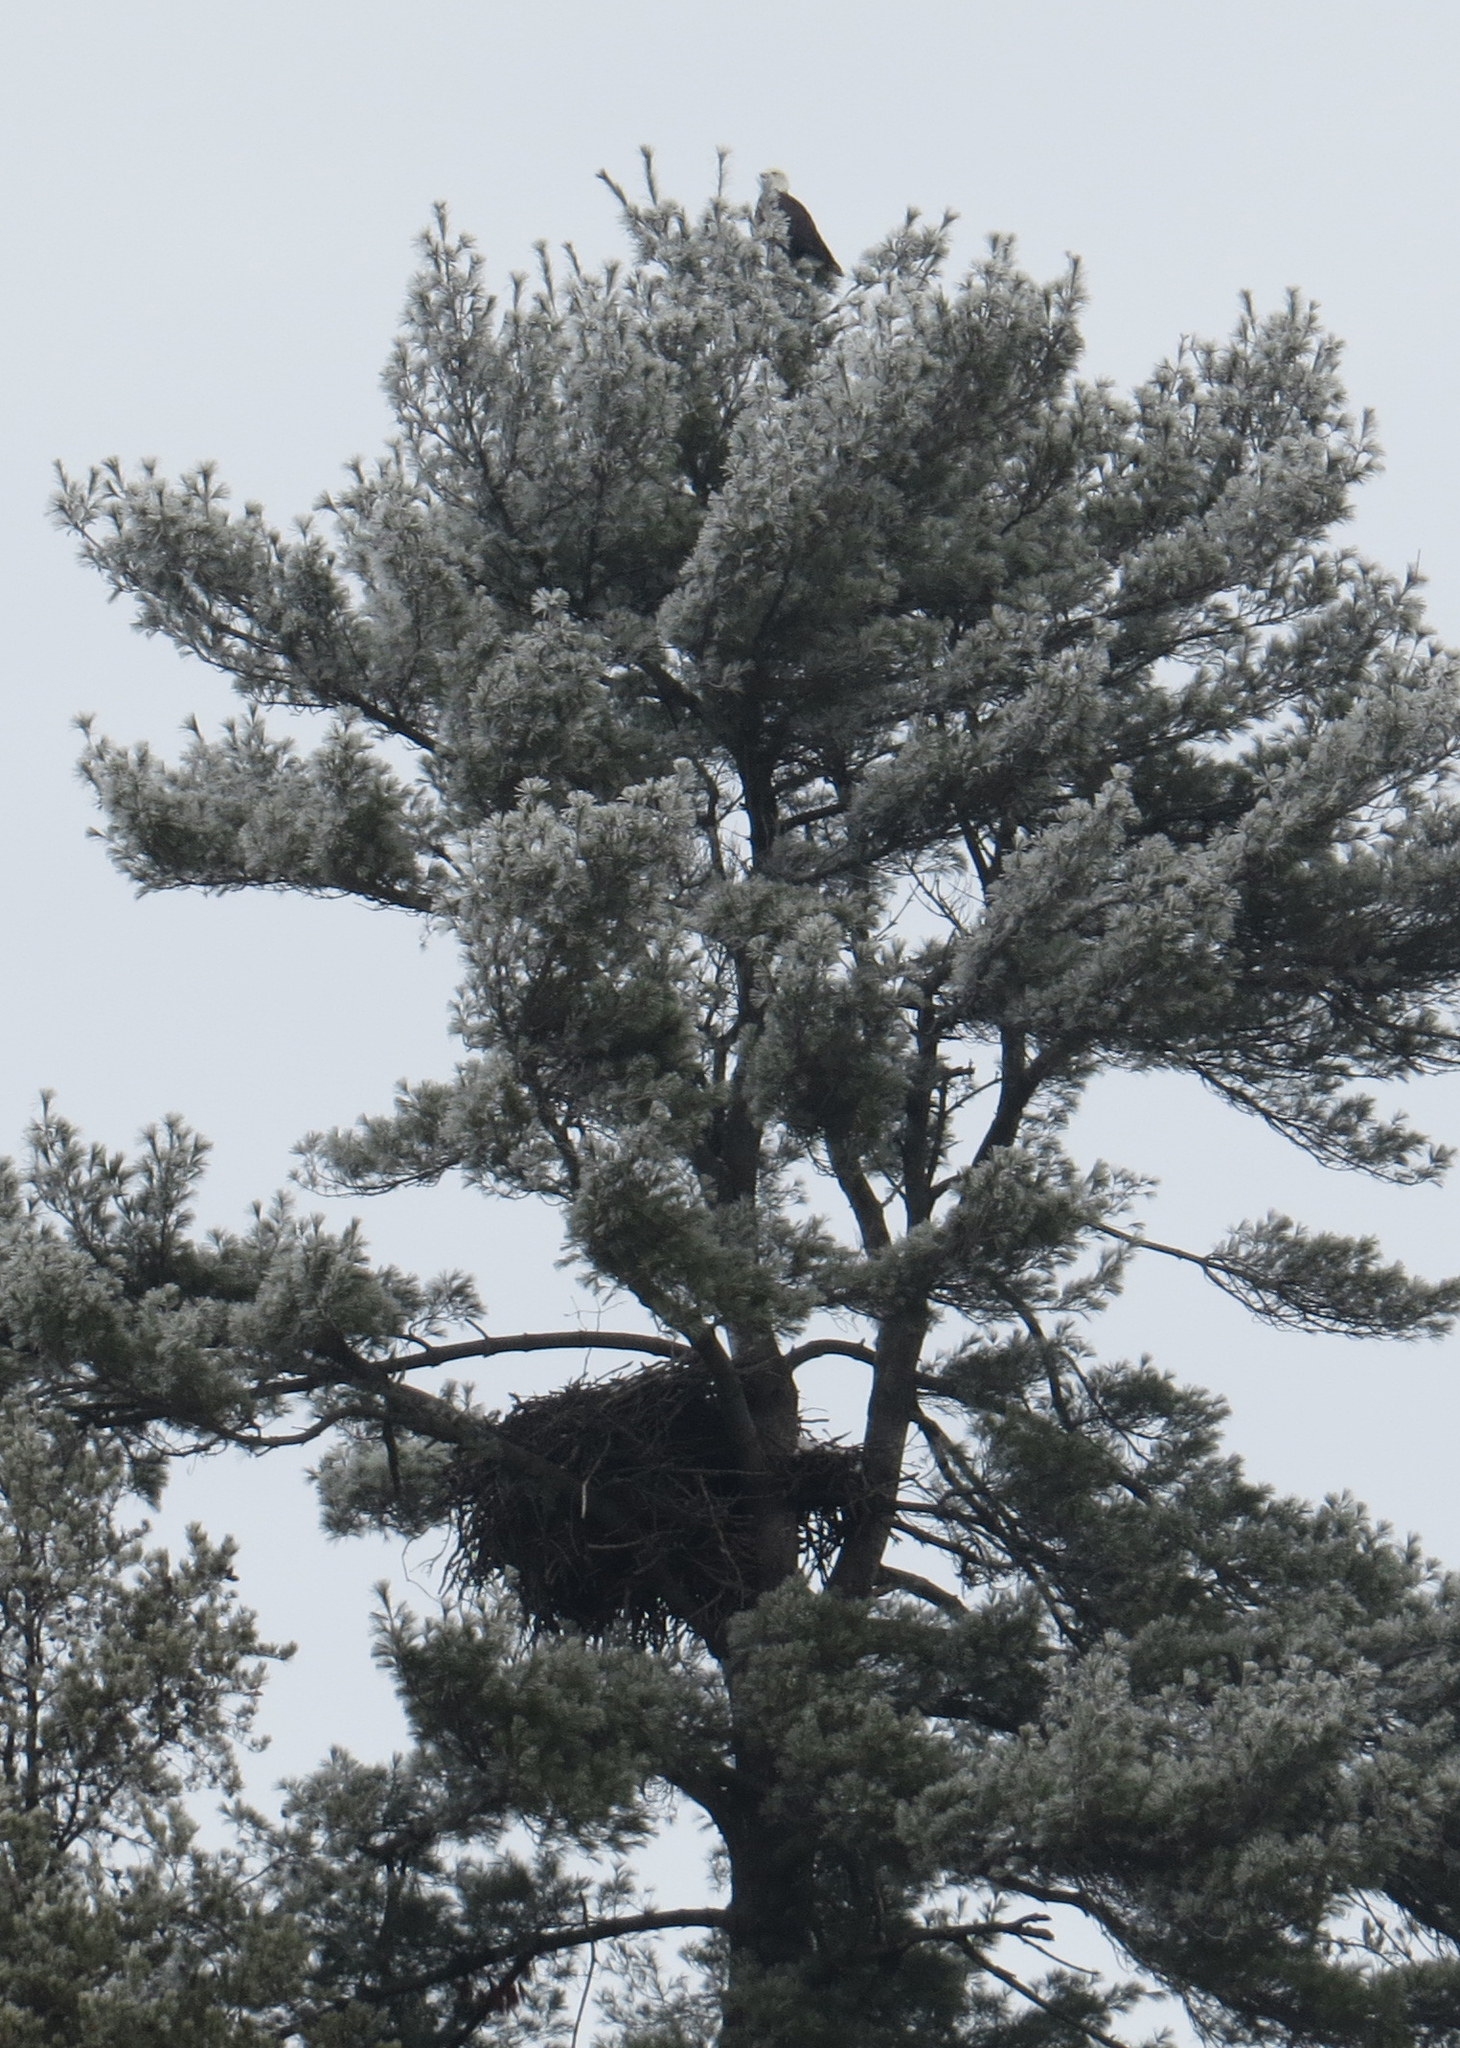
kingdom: Animalia
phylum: Chordata
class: Aves
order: Accipitriformes
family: Accipitridae
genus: Haliaeetus
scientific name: Haliaeetus leucocephalus
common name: Bald eagle
